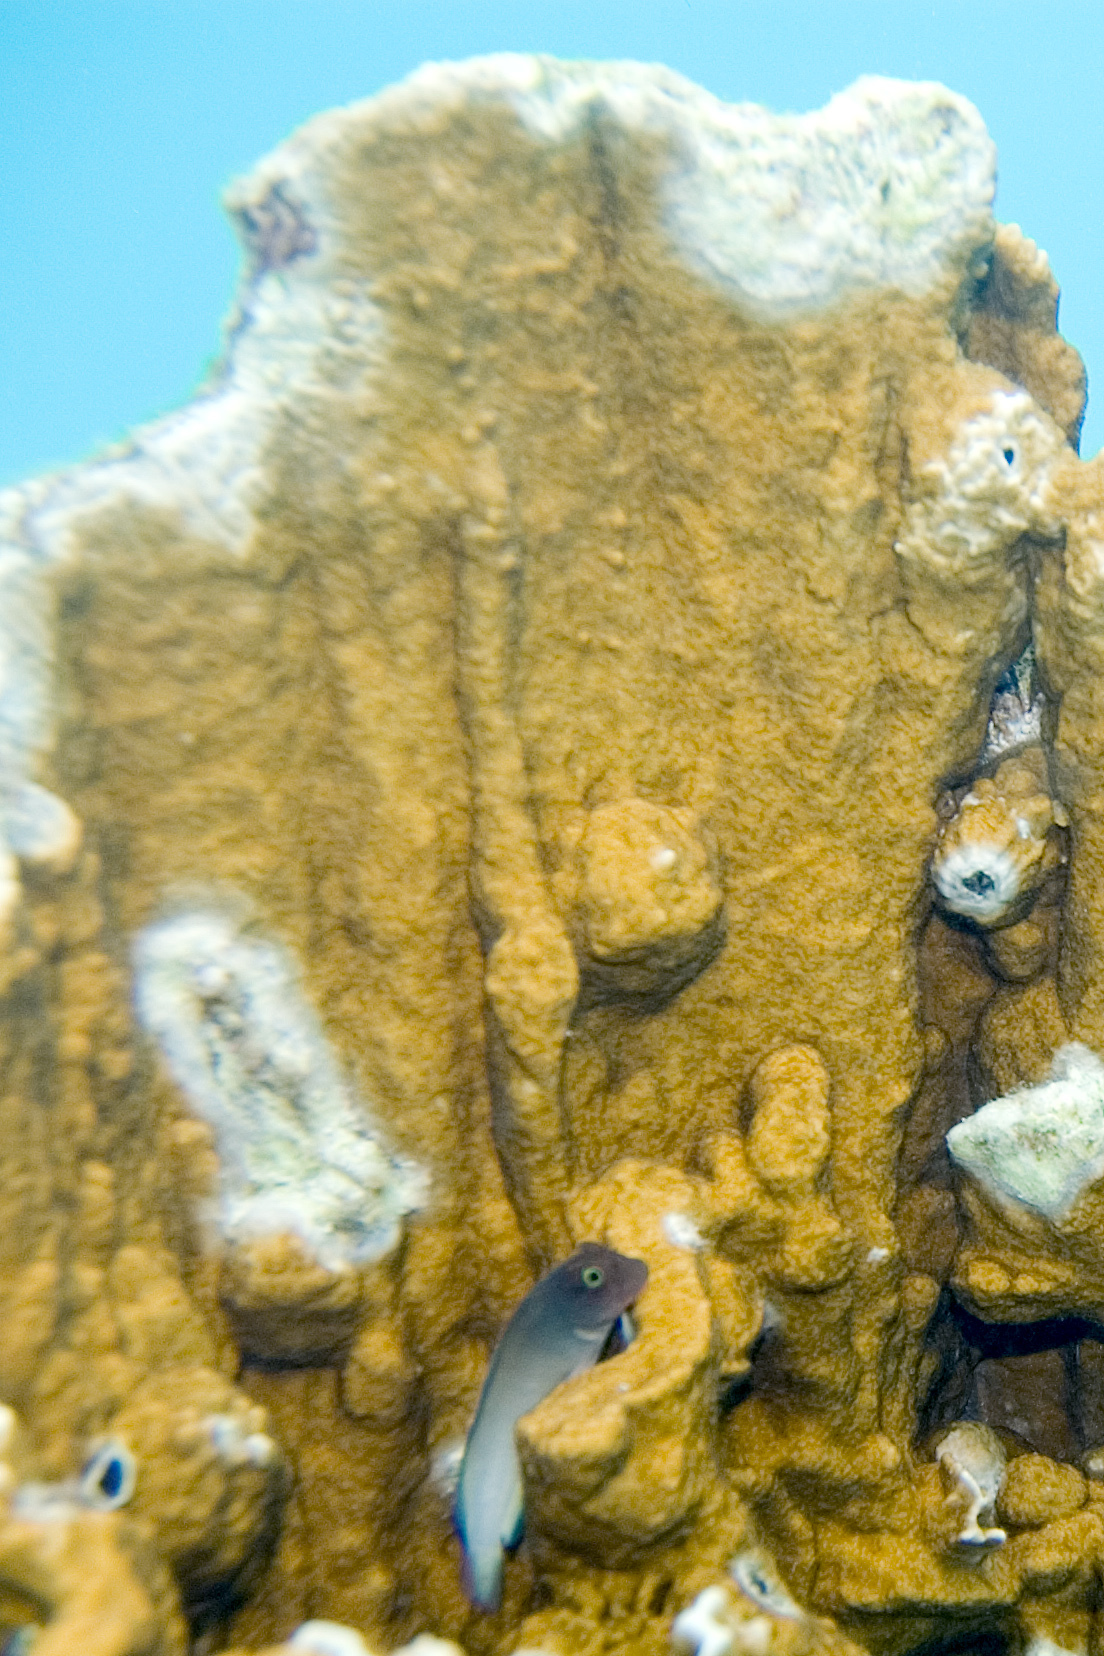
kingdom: Animalia
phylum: Cnidaria
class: Hydrozoa
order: Anthoathecata
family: Milleporidae
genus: Millepora
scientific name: Millepora complanata
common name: Bladed fire coral
